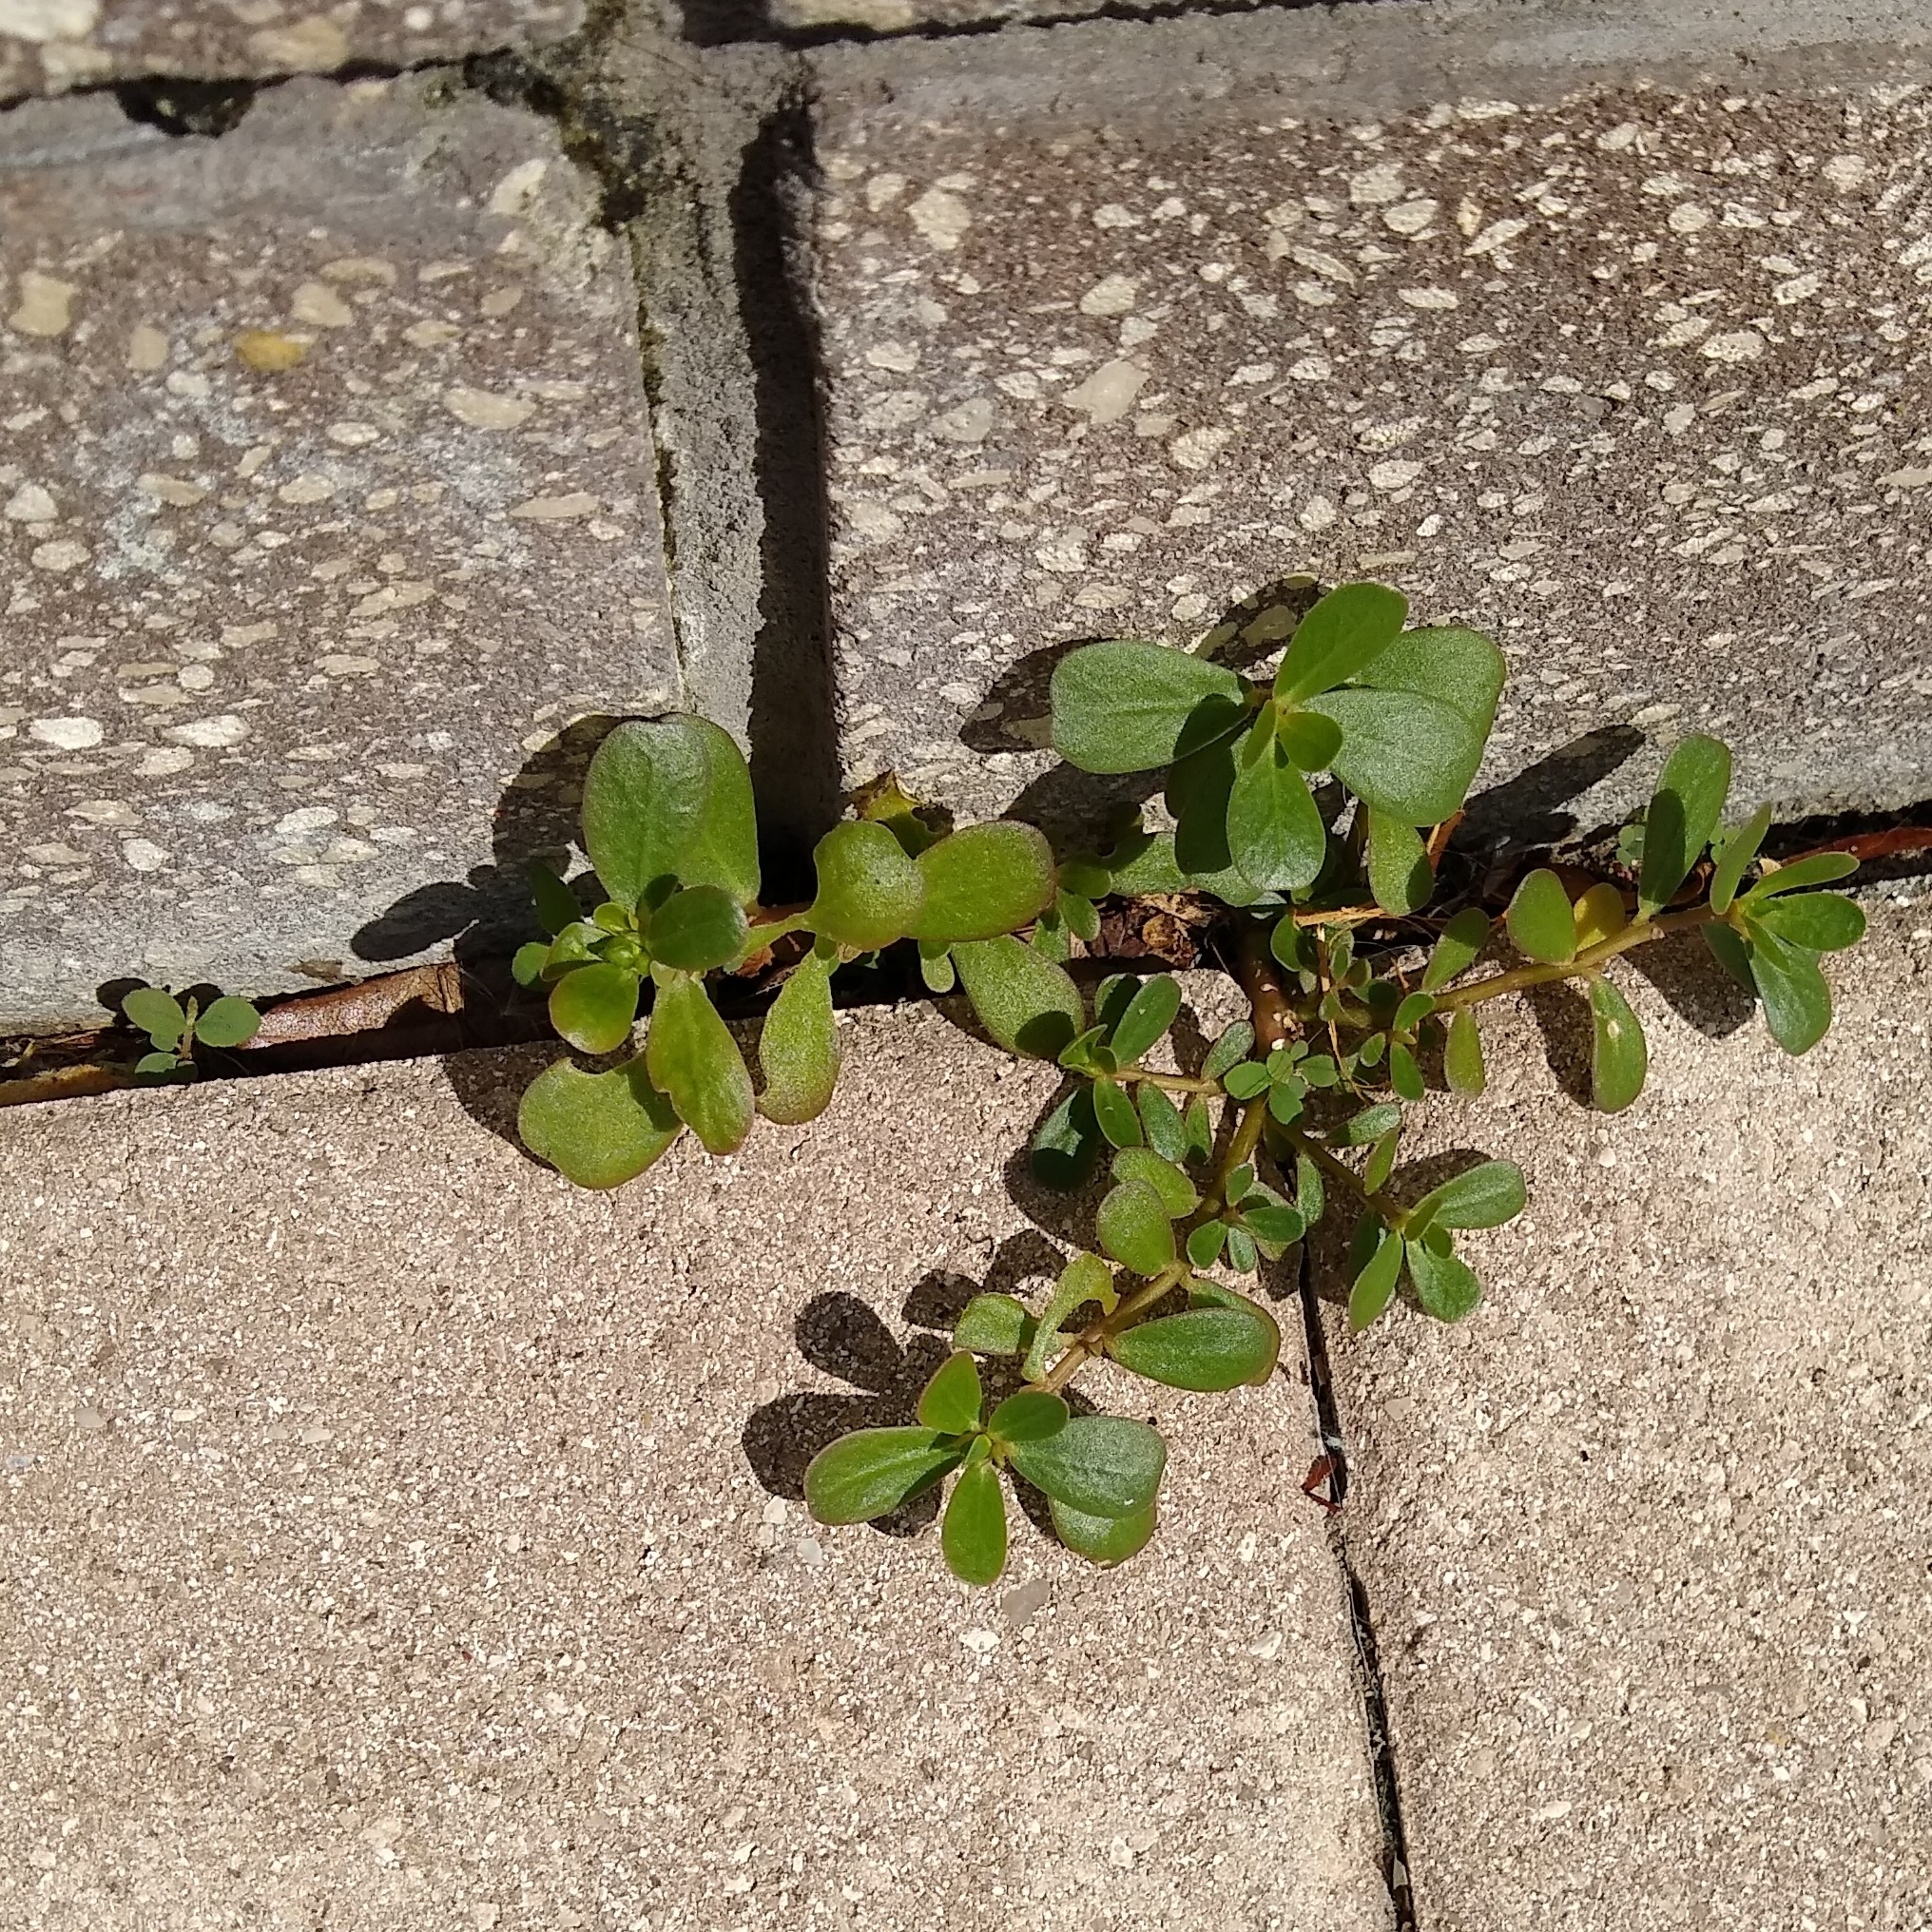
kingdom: Plantae
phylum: Tracheophyta
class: Magnoliopsida
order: Caryophyllales
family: Portulacaceae
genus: Portulaca
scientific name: Portulaca oleracea
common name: Common purslane
